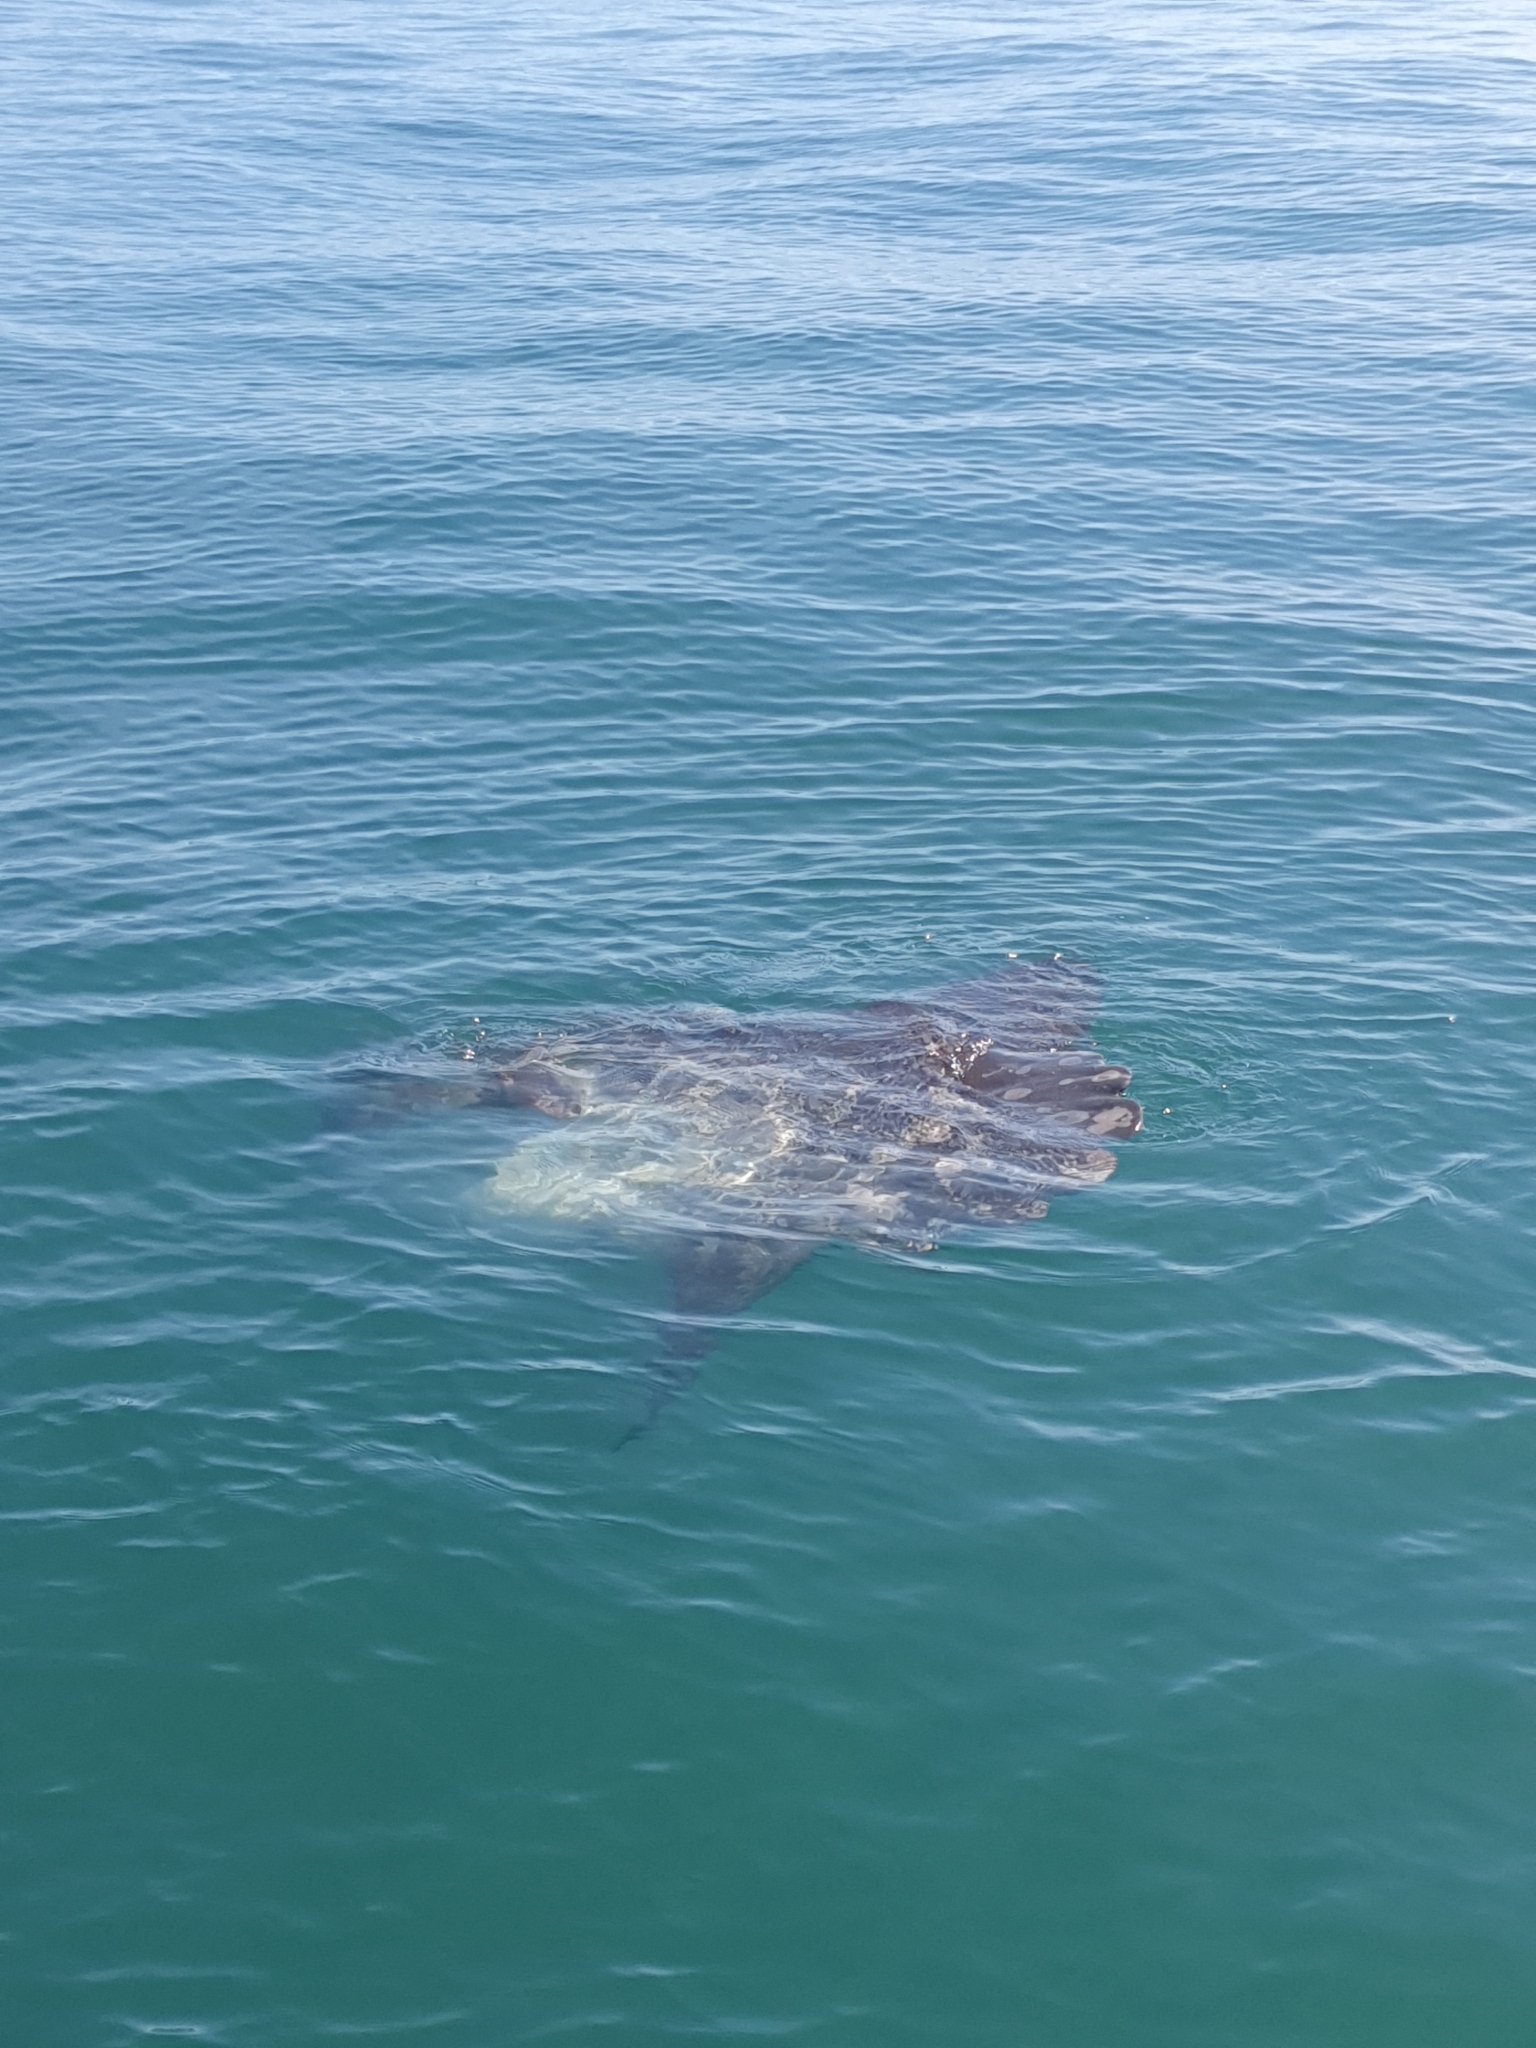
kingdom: Animalia
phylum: Chordata
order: Tetraodontiformes
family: Molidae
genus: Mola
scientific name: Mola mola
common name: Ocean sunfish
